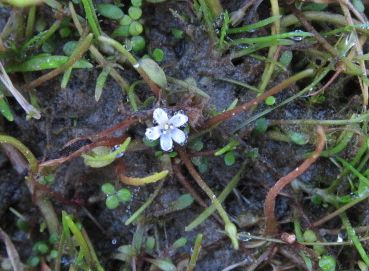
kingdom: Plantae
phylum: Tracheophyta
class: Magnoliopsida
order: Lamiales
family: Scrophulariaceae
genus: Limosella
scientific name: Limosella australis
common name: Welsh mudwort
